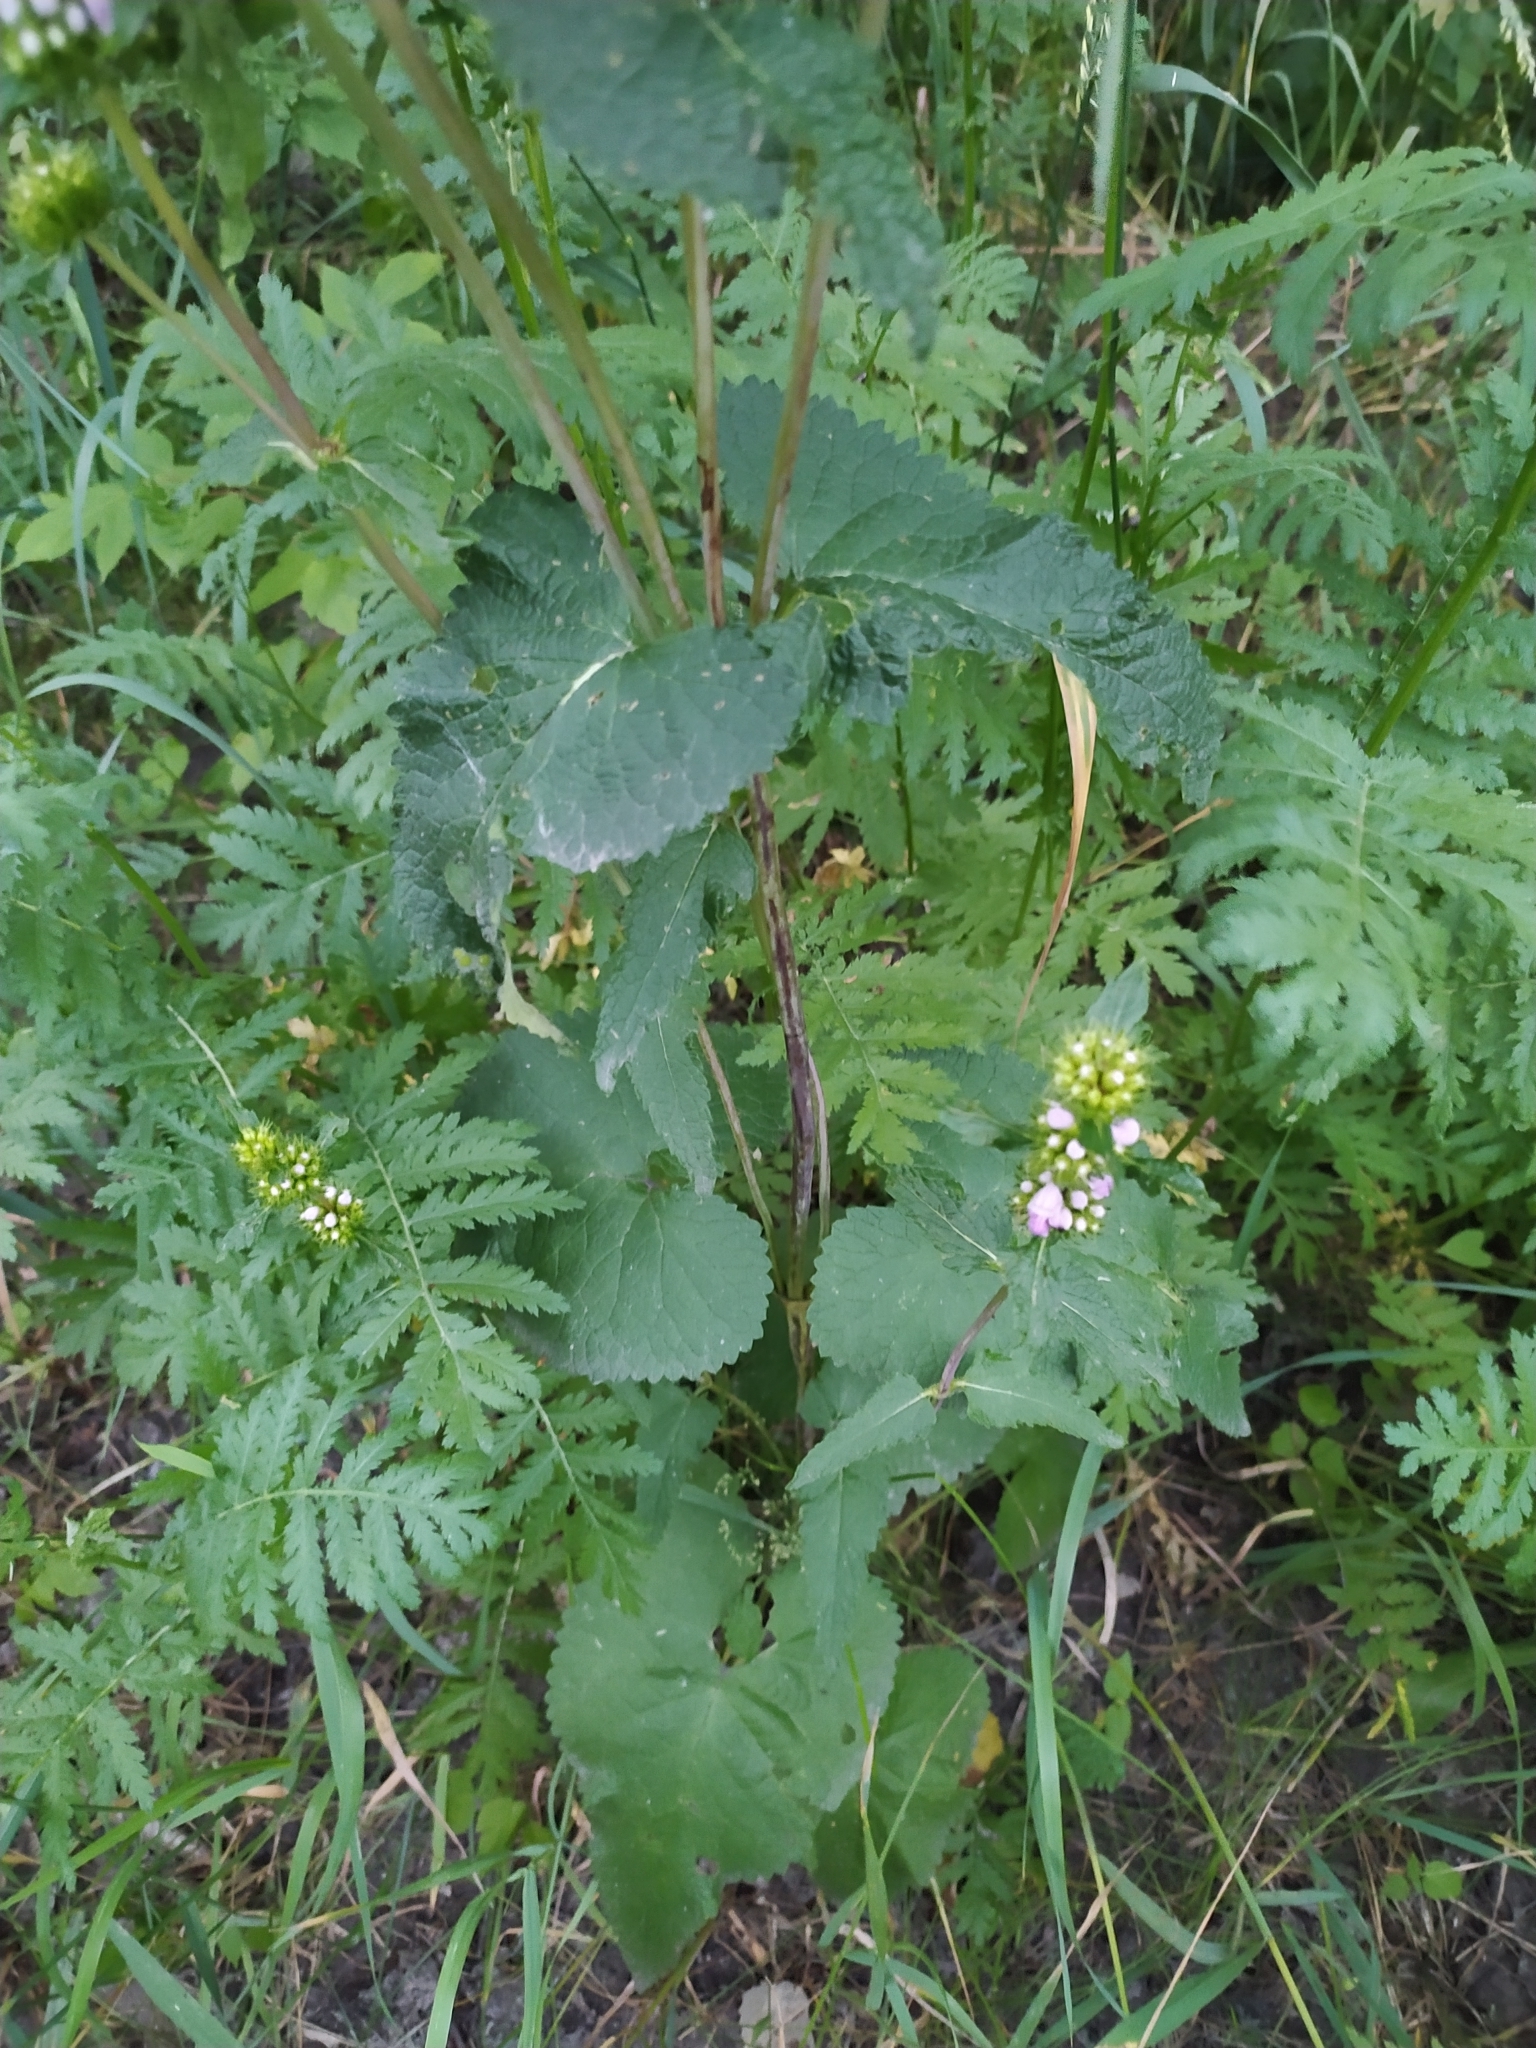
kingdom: Plantae
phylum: Tracheophyta
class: Magnoliopsida
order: Lamiales
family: Lamiaceae
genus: Phlomoides
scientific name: Phlomoides tuberosa
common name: Tuberous jerusalem sage
